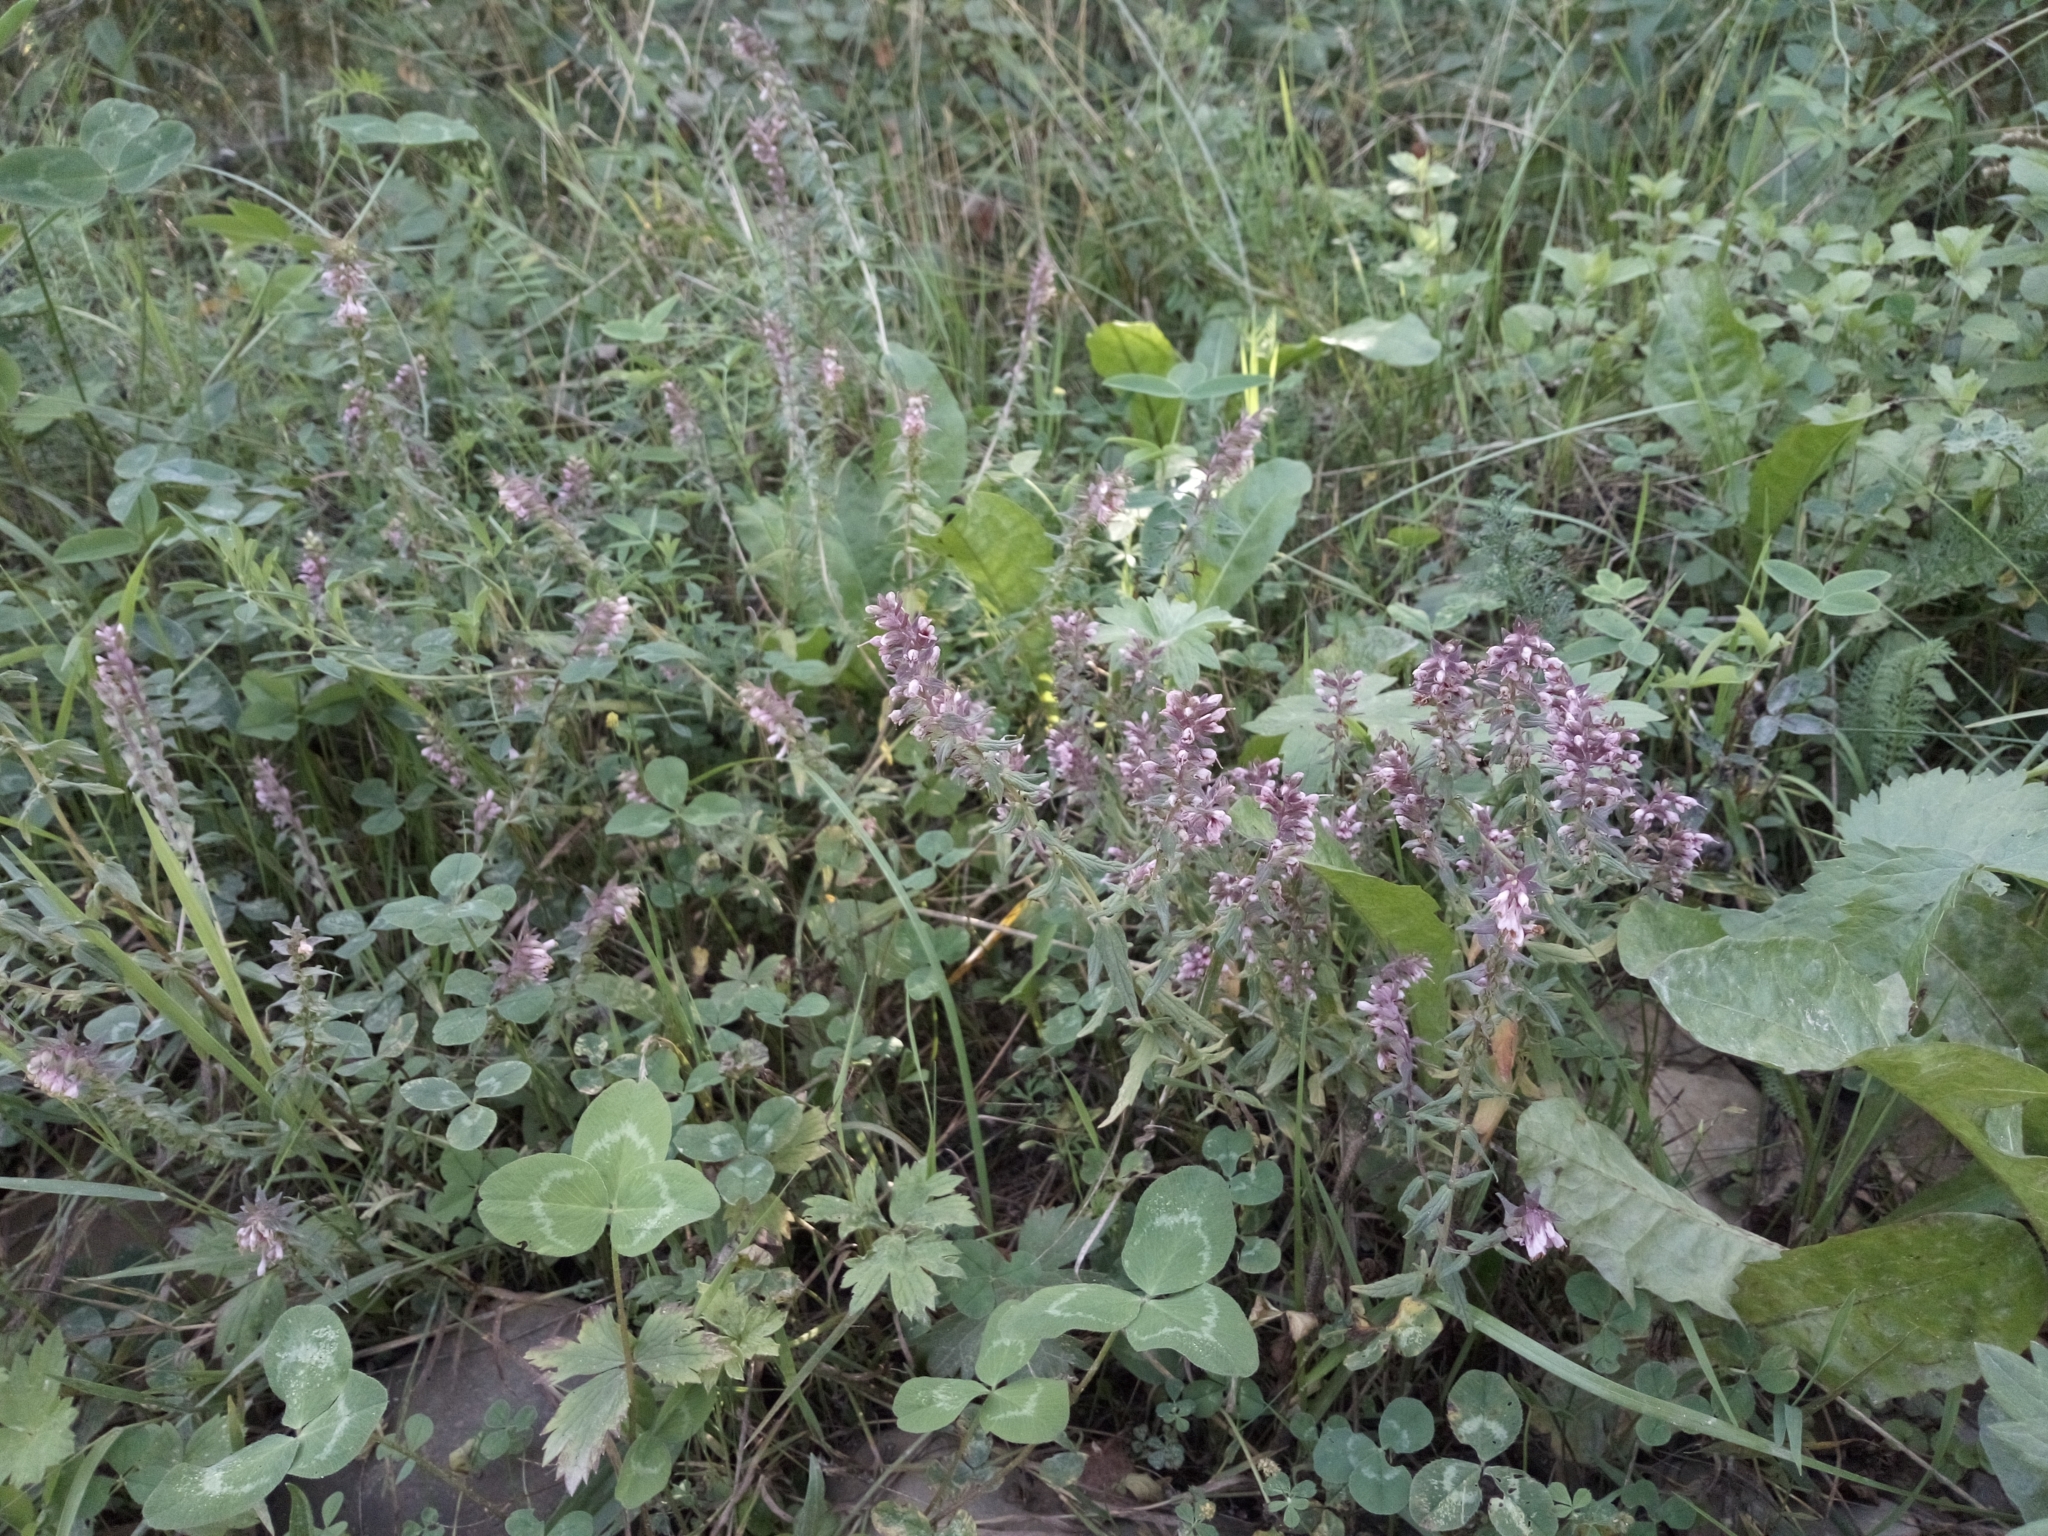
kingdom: Plantae
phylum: Tracheophyta
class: Magnoliopsida
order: Lamiales
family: Orobanchaceae
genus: Odontites
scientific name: Odontites vulgaris
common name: Broomrape
